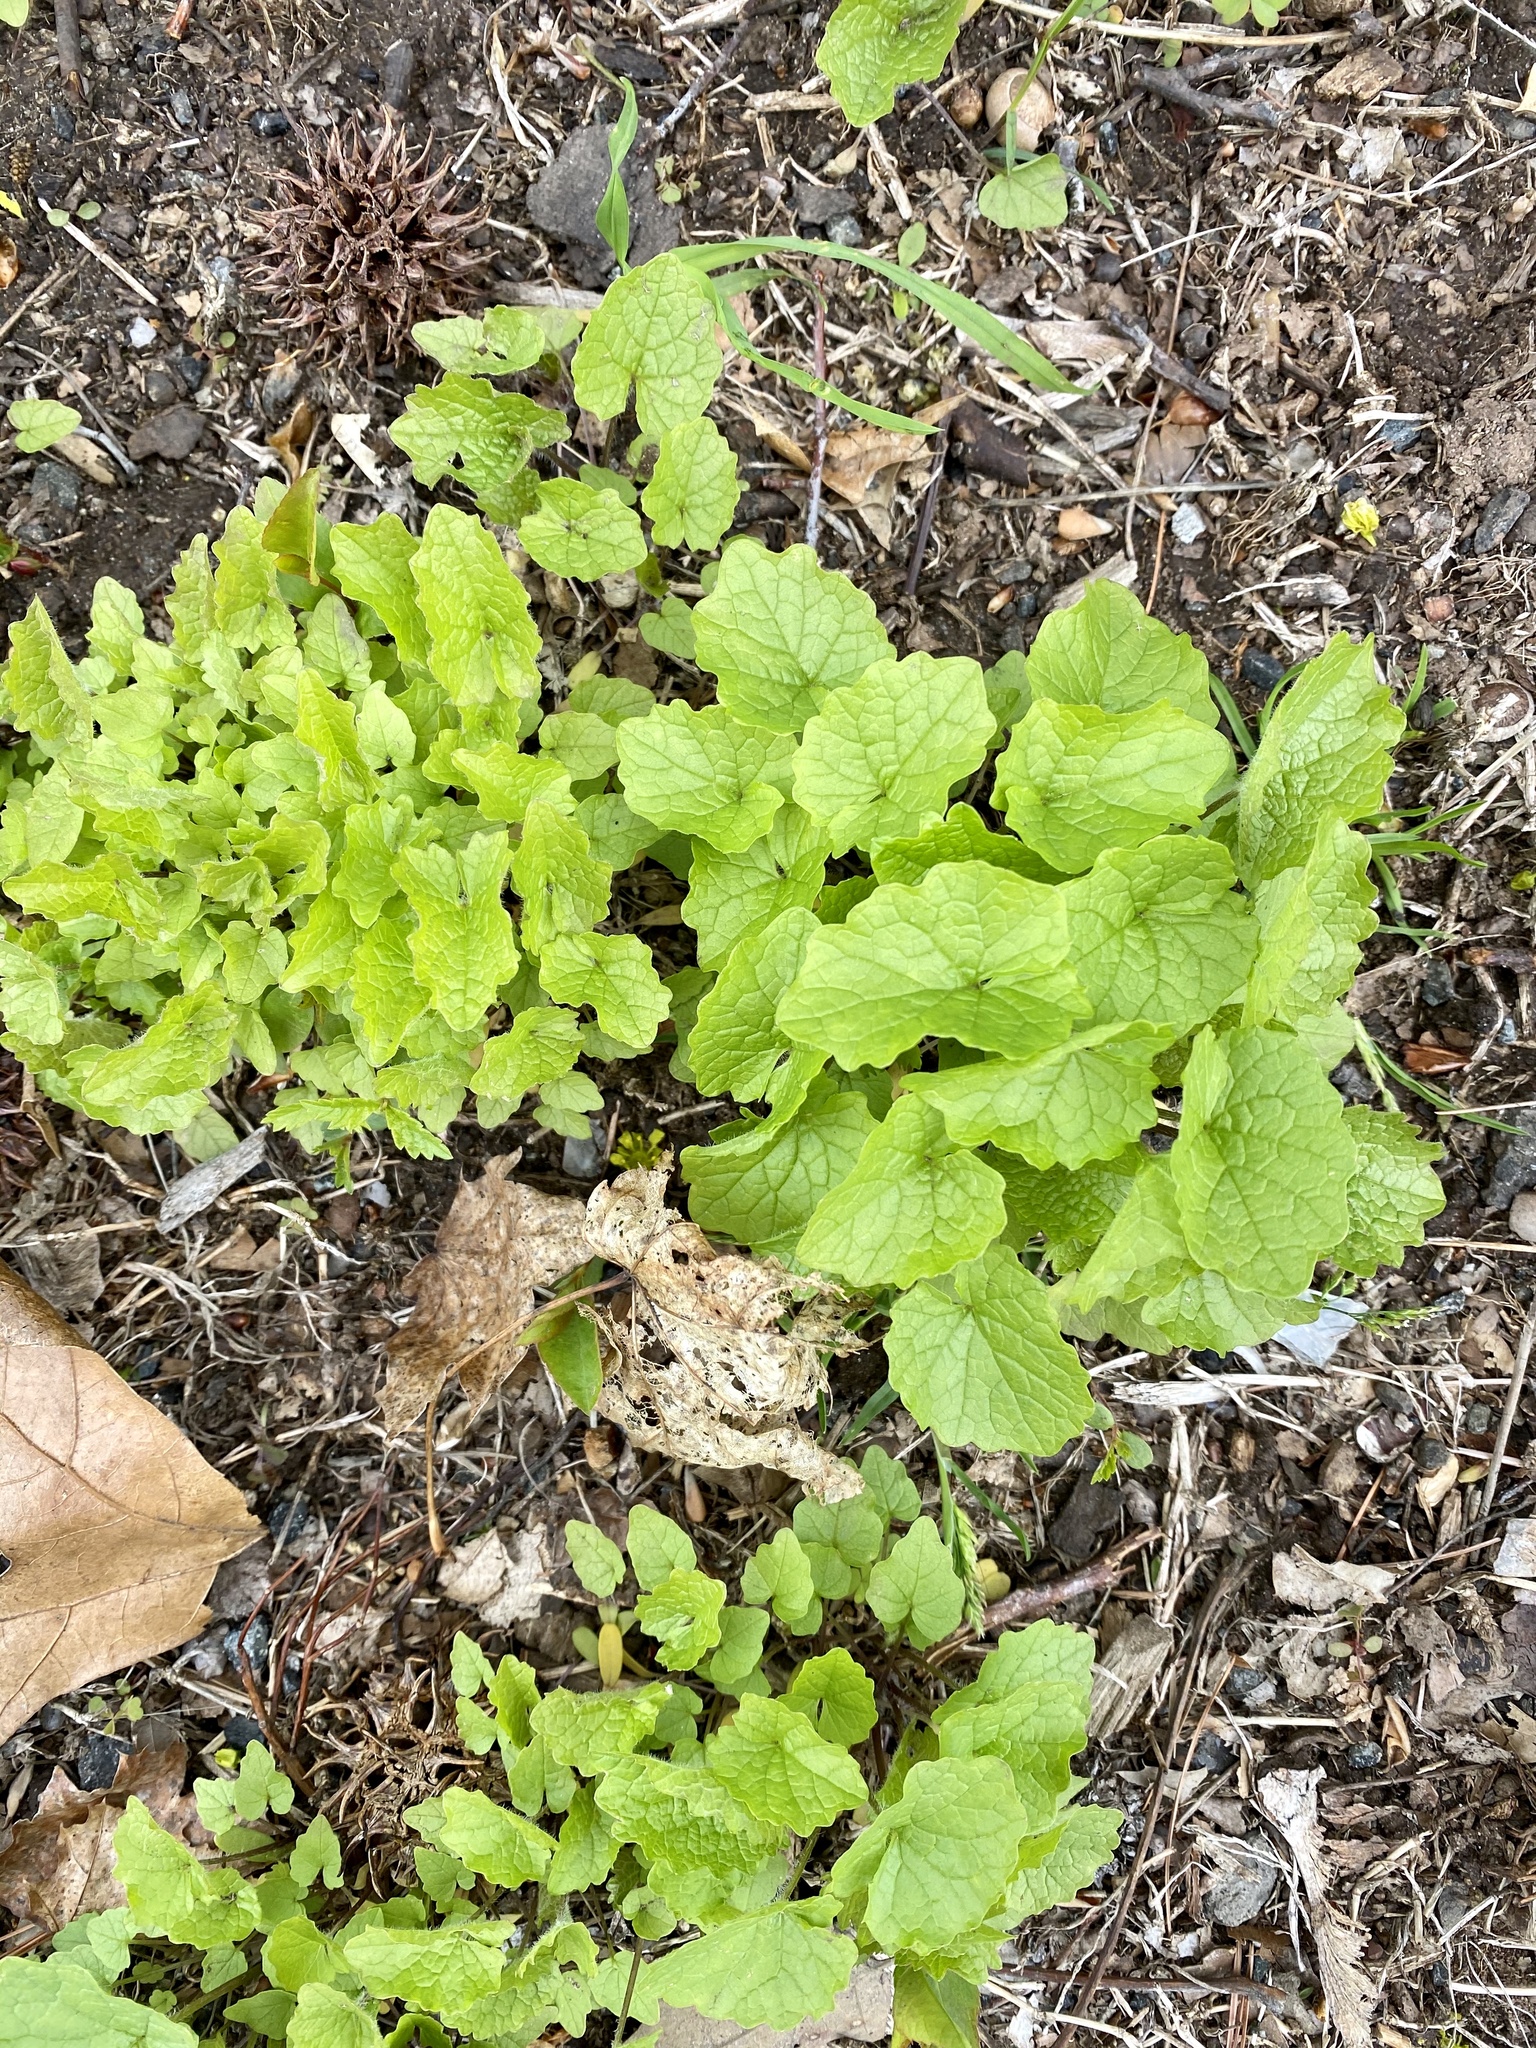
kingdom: Plantae
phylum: Tracheophyta
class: Magnoliopsida
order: Brassicales
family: Brassicaceae
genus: Alliaria
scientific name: Alliaria petiolata
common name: Garlic mustard
